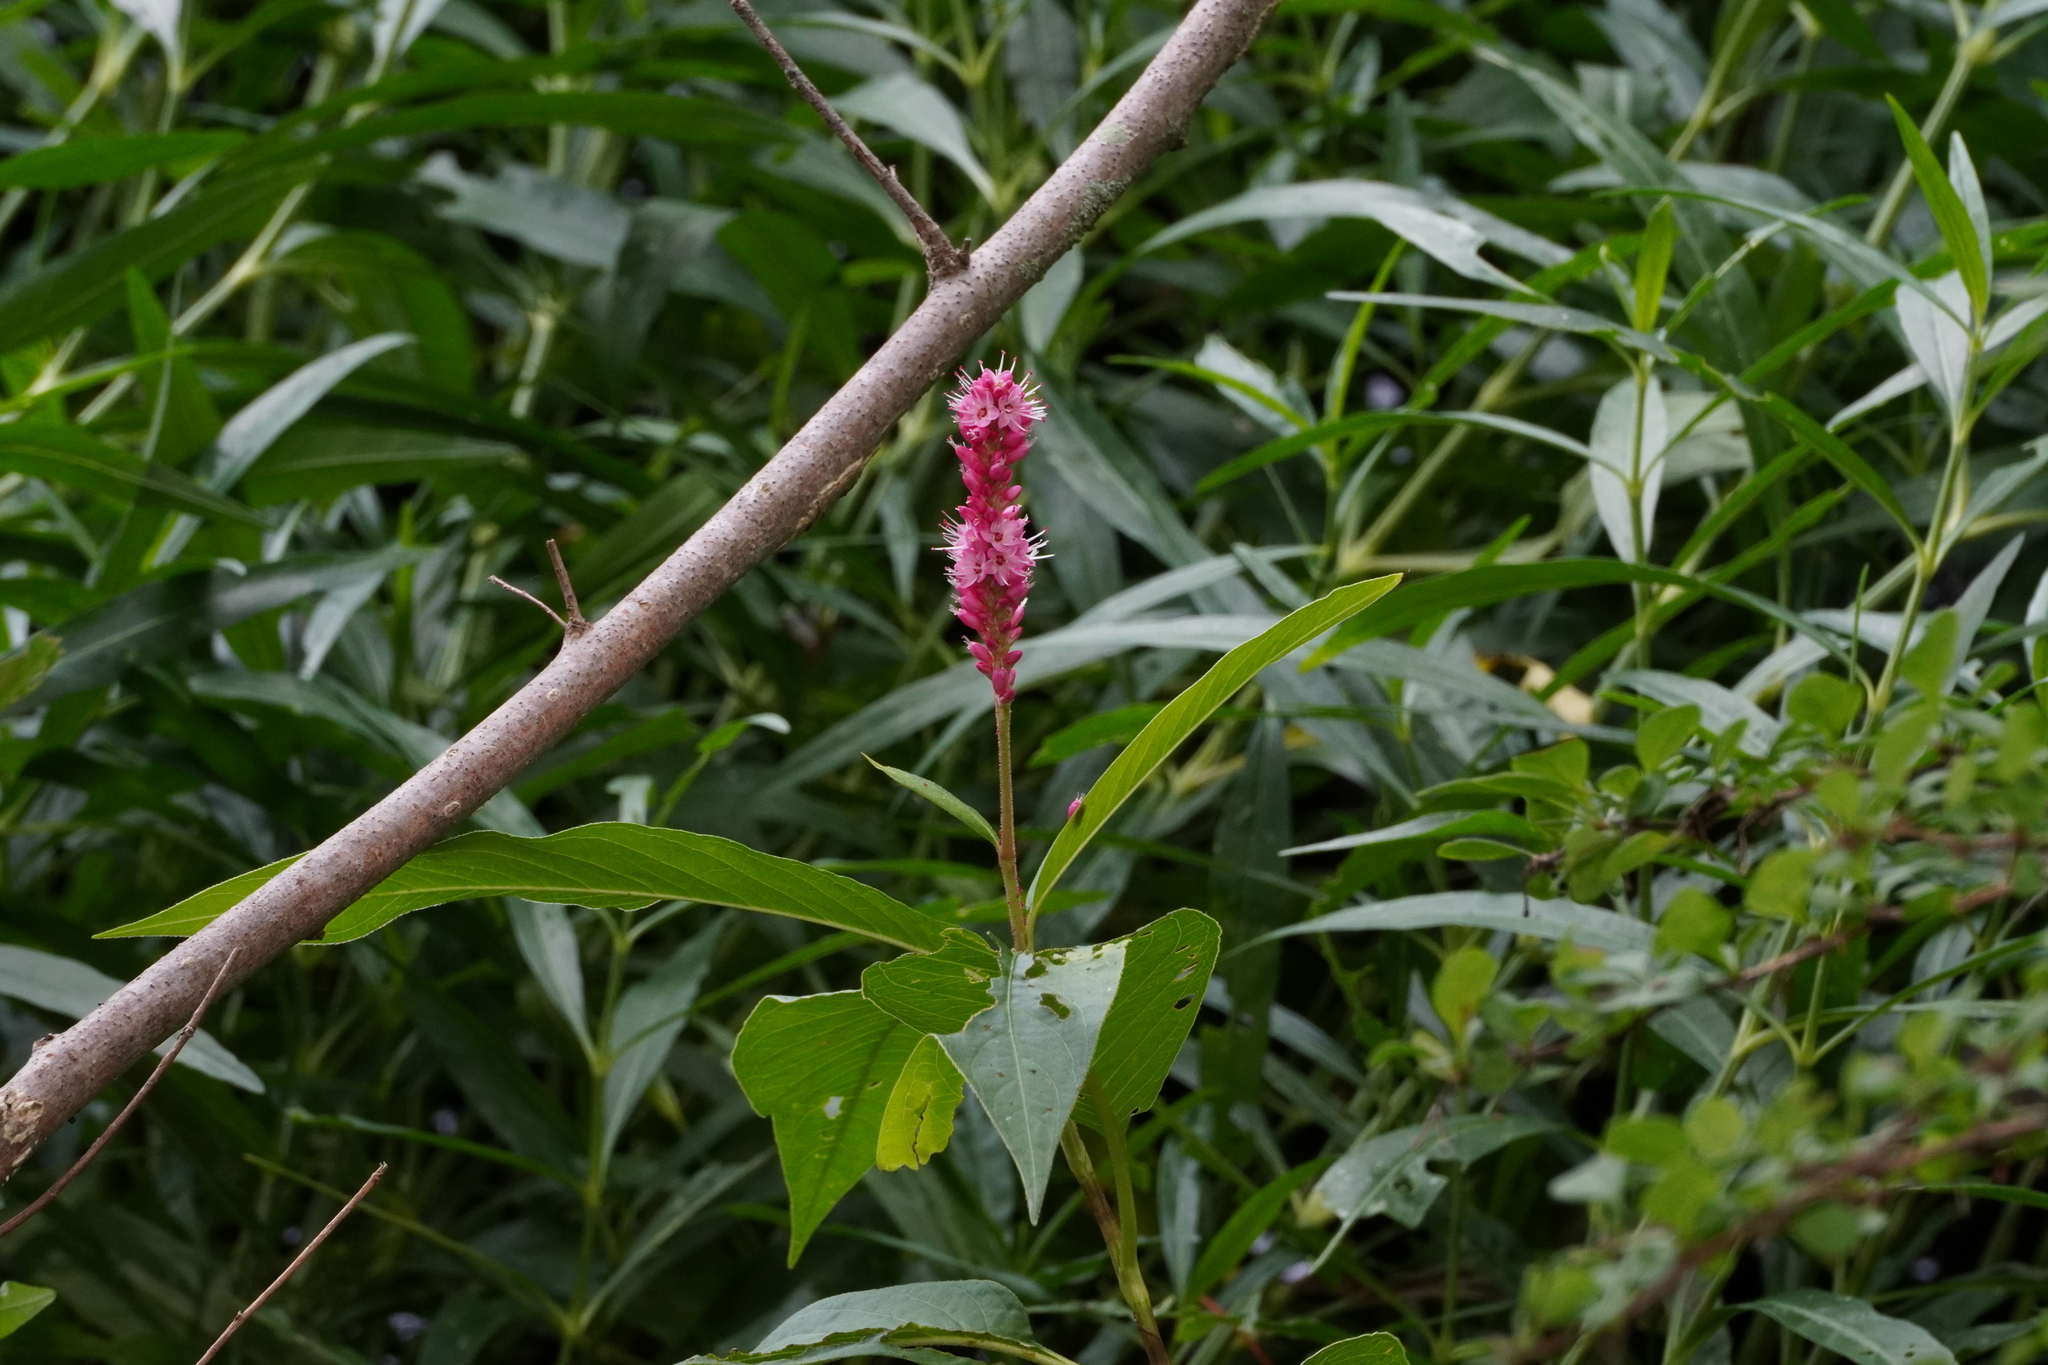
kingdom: Plantae
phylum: Tracheophyta
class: Magnoliopsida
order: Caryophyllales
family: Polygonaceae
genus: Persicaria
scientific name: Persicaria amphibia
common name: Amphibious bistort
